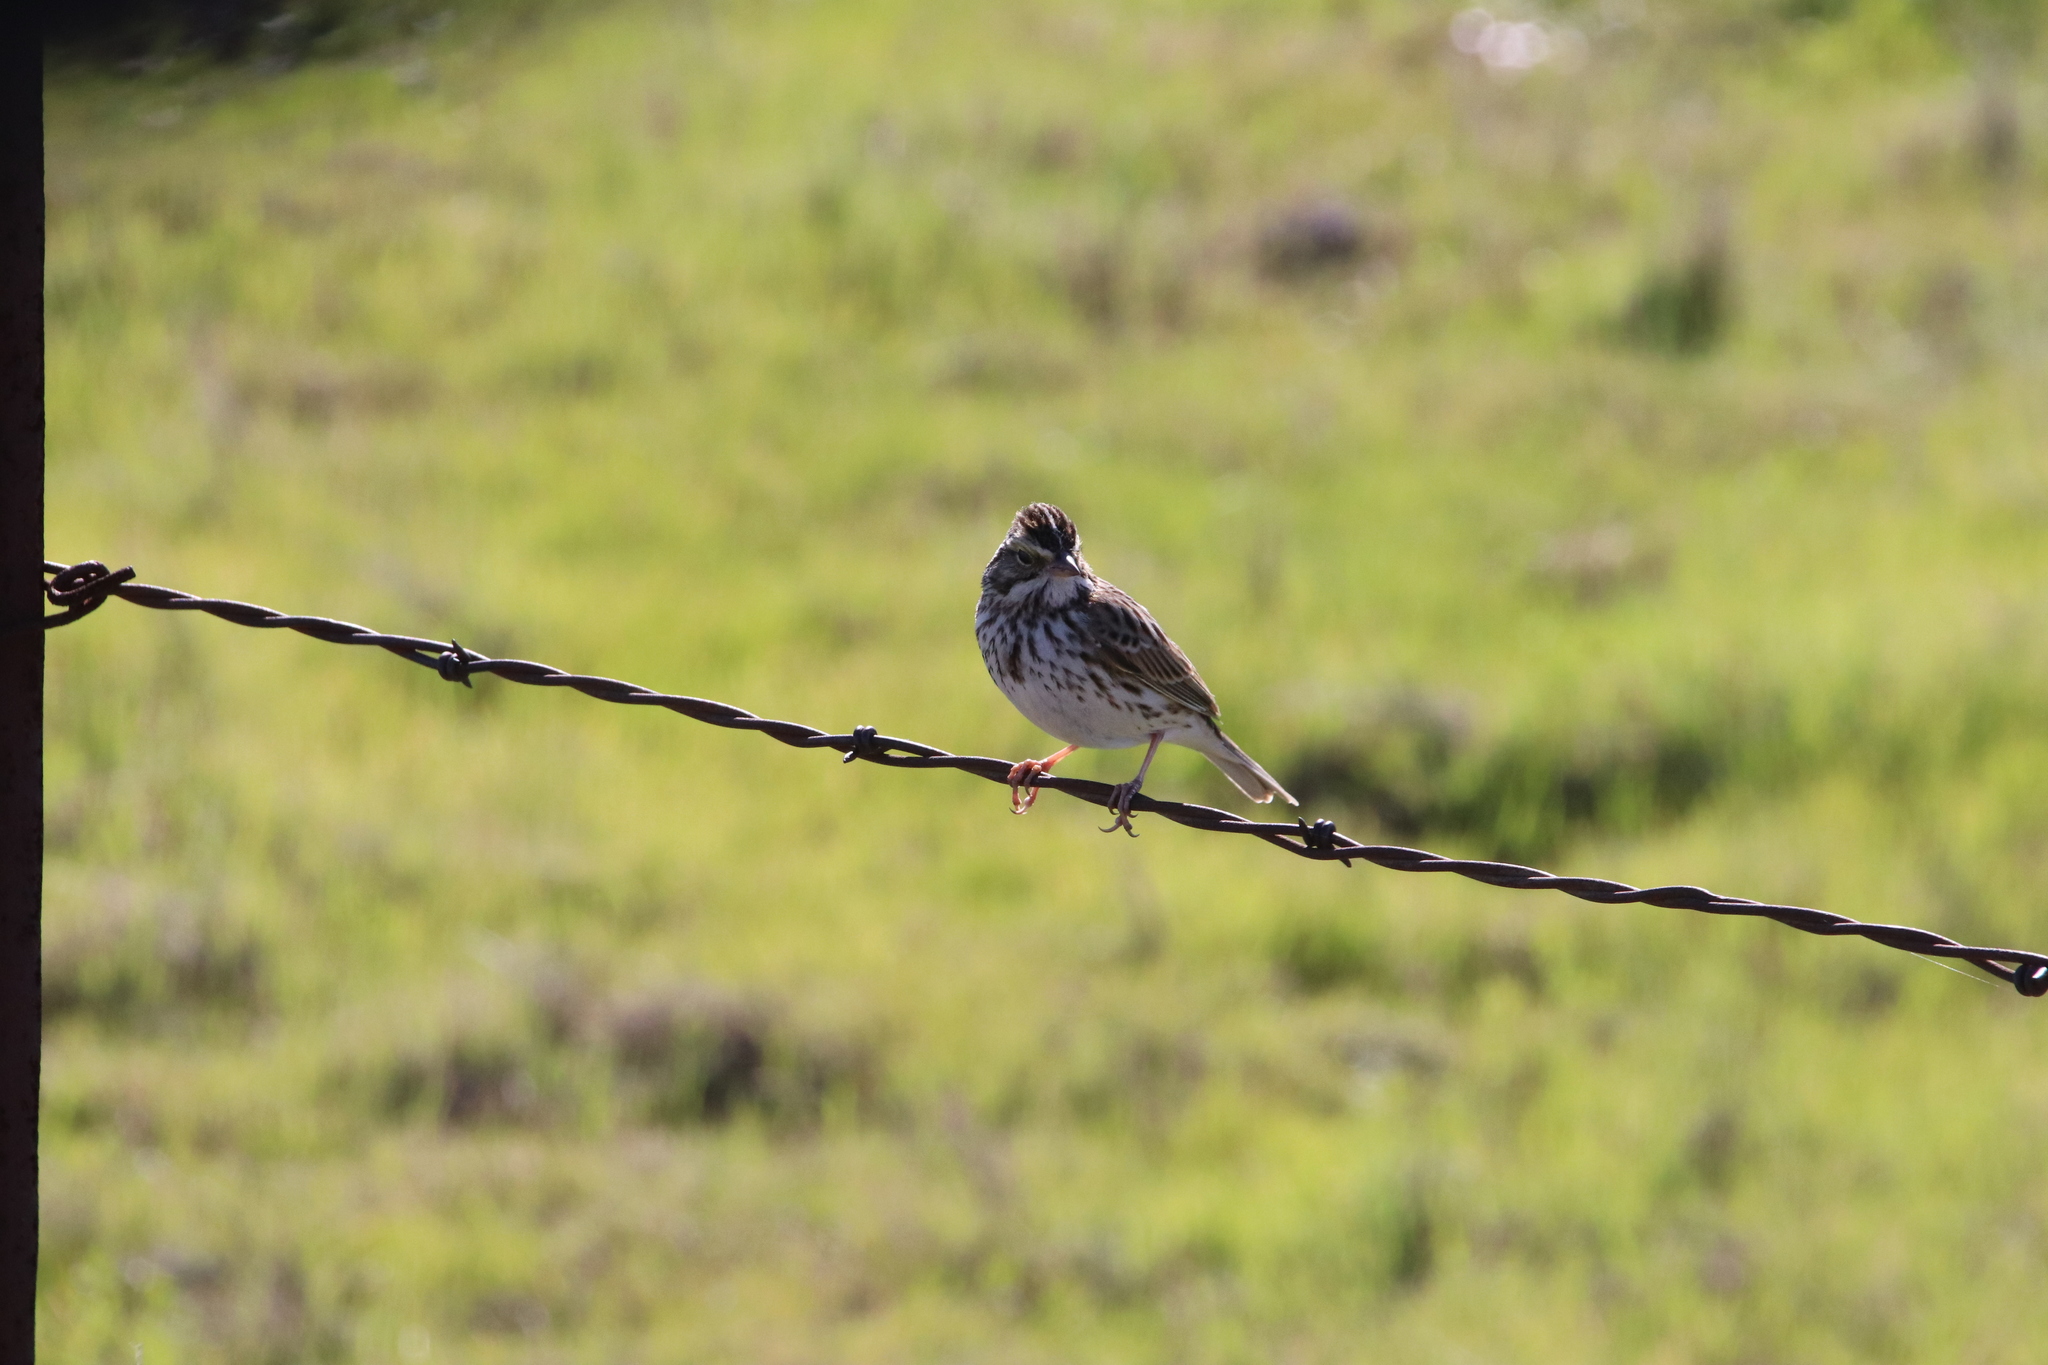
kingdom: Animalia
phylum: Chordata
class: Aves
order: Passeriformes
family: Passerellidae
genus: Passerculus
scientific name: Passerculus sandwichensis
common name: Savannah sparrow
